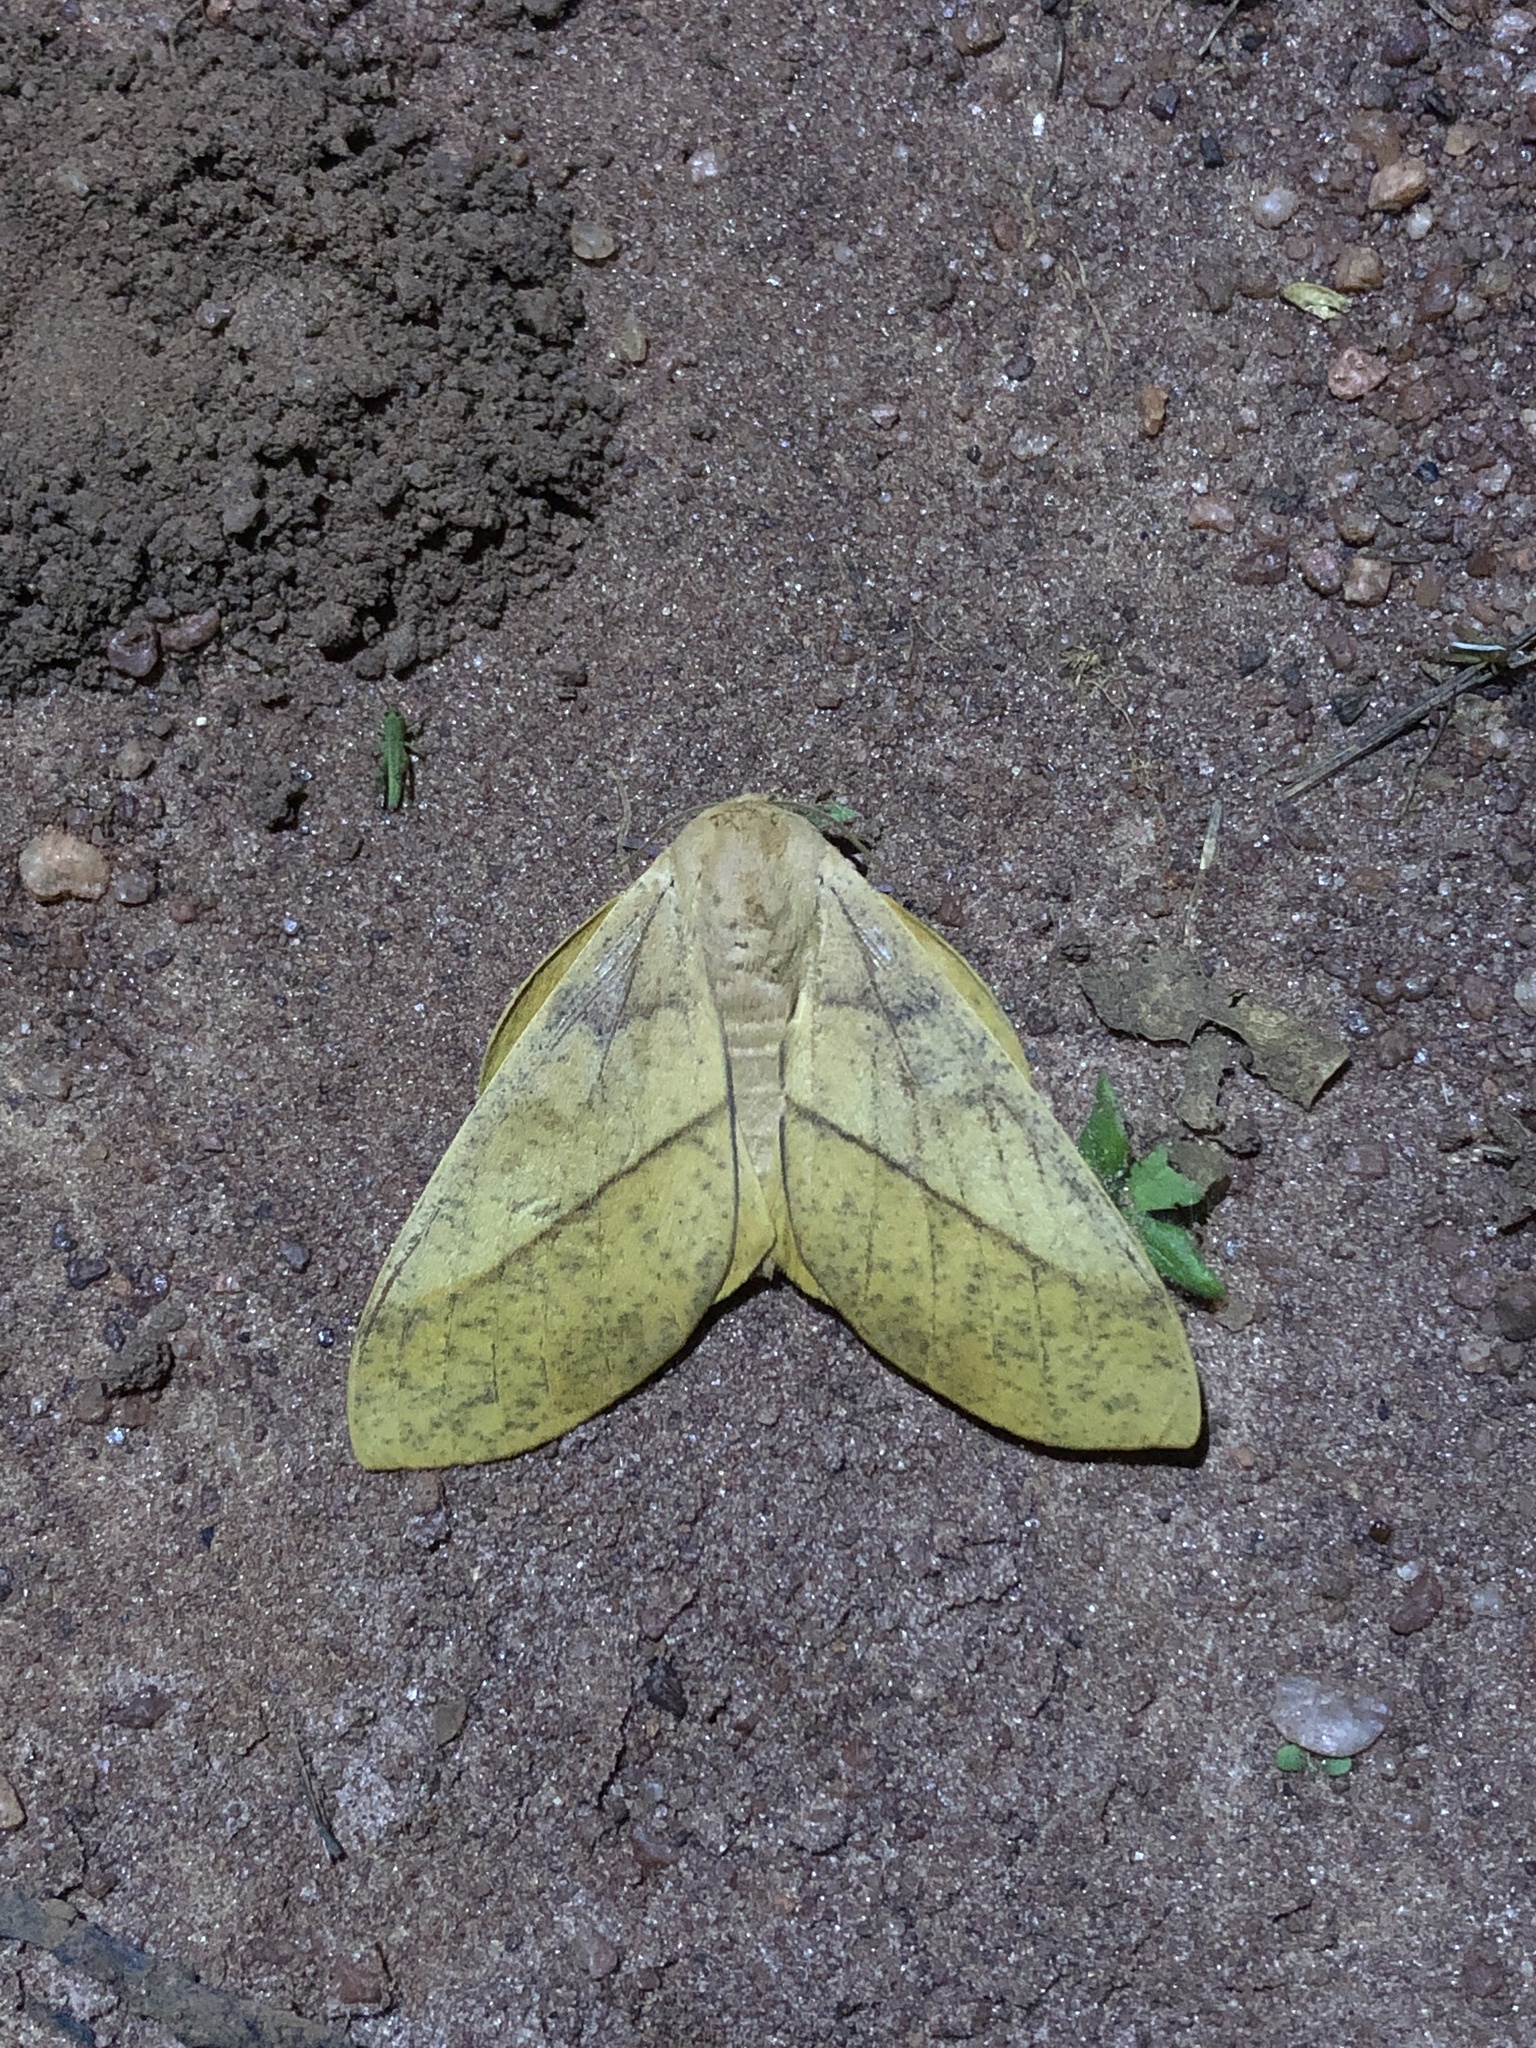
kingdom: Animalia
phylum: Arthropoda
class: Insecta
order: Lepidoptera
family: Saturniidae
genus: Syssphinx
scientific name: Syssphinx molina
